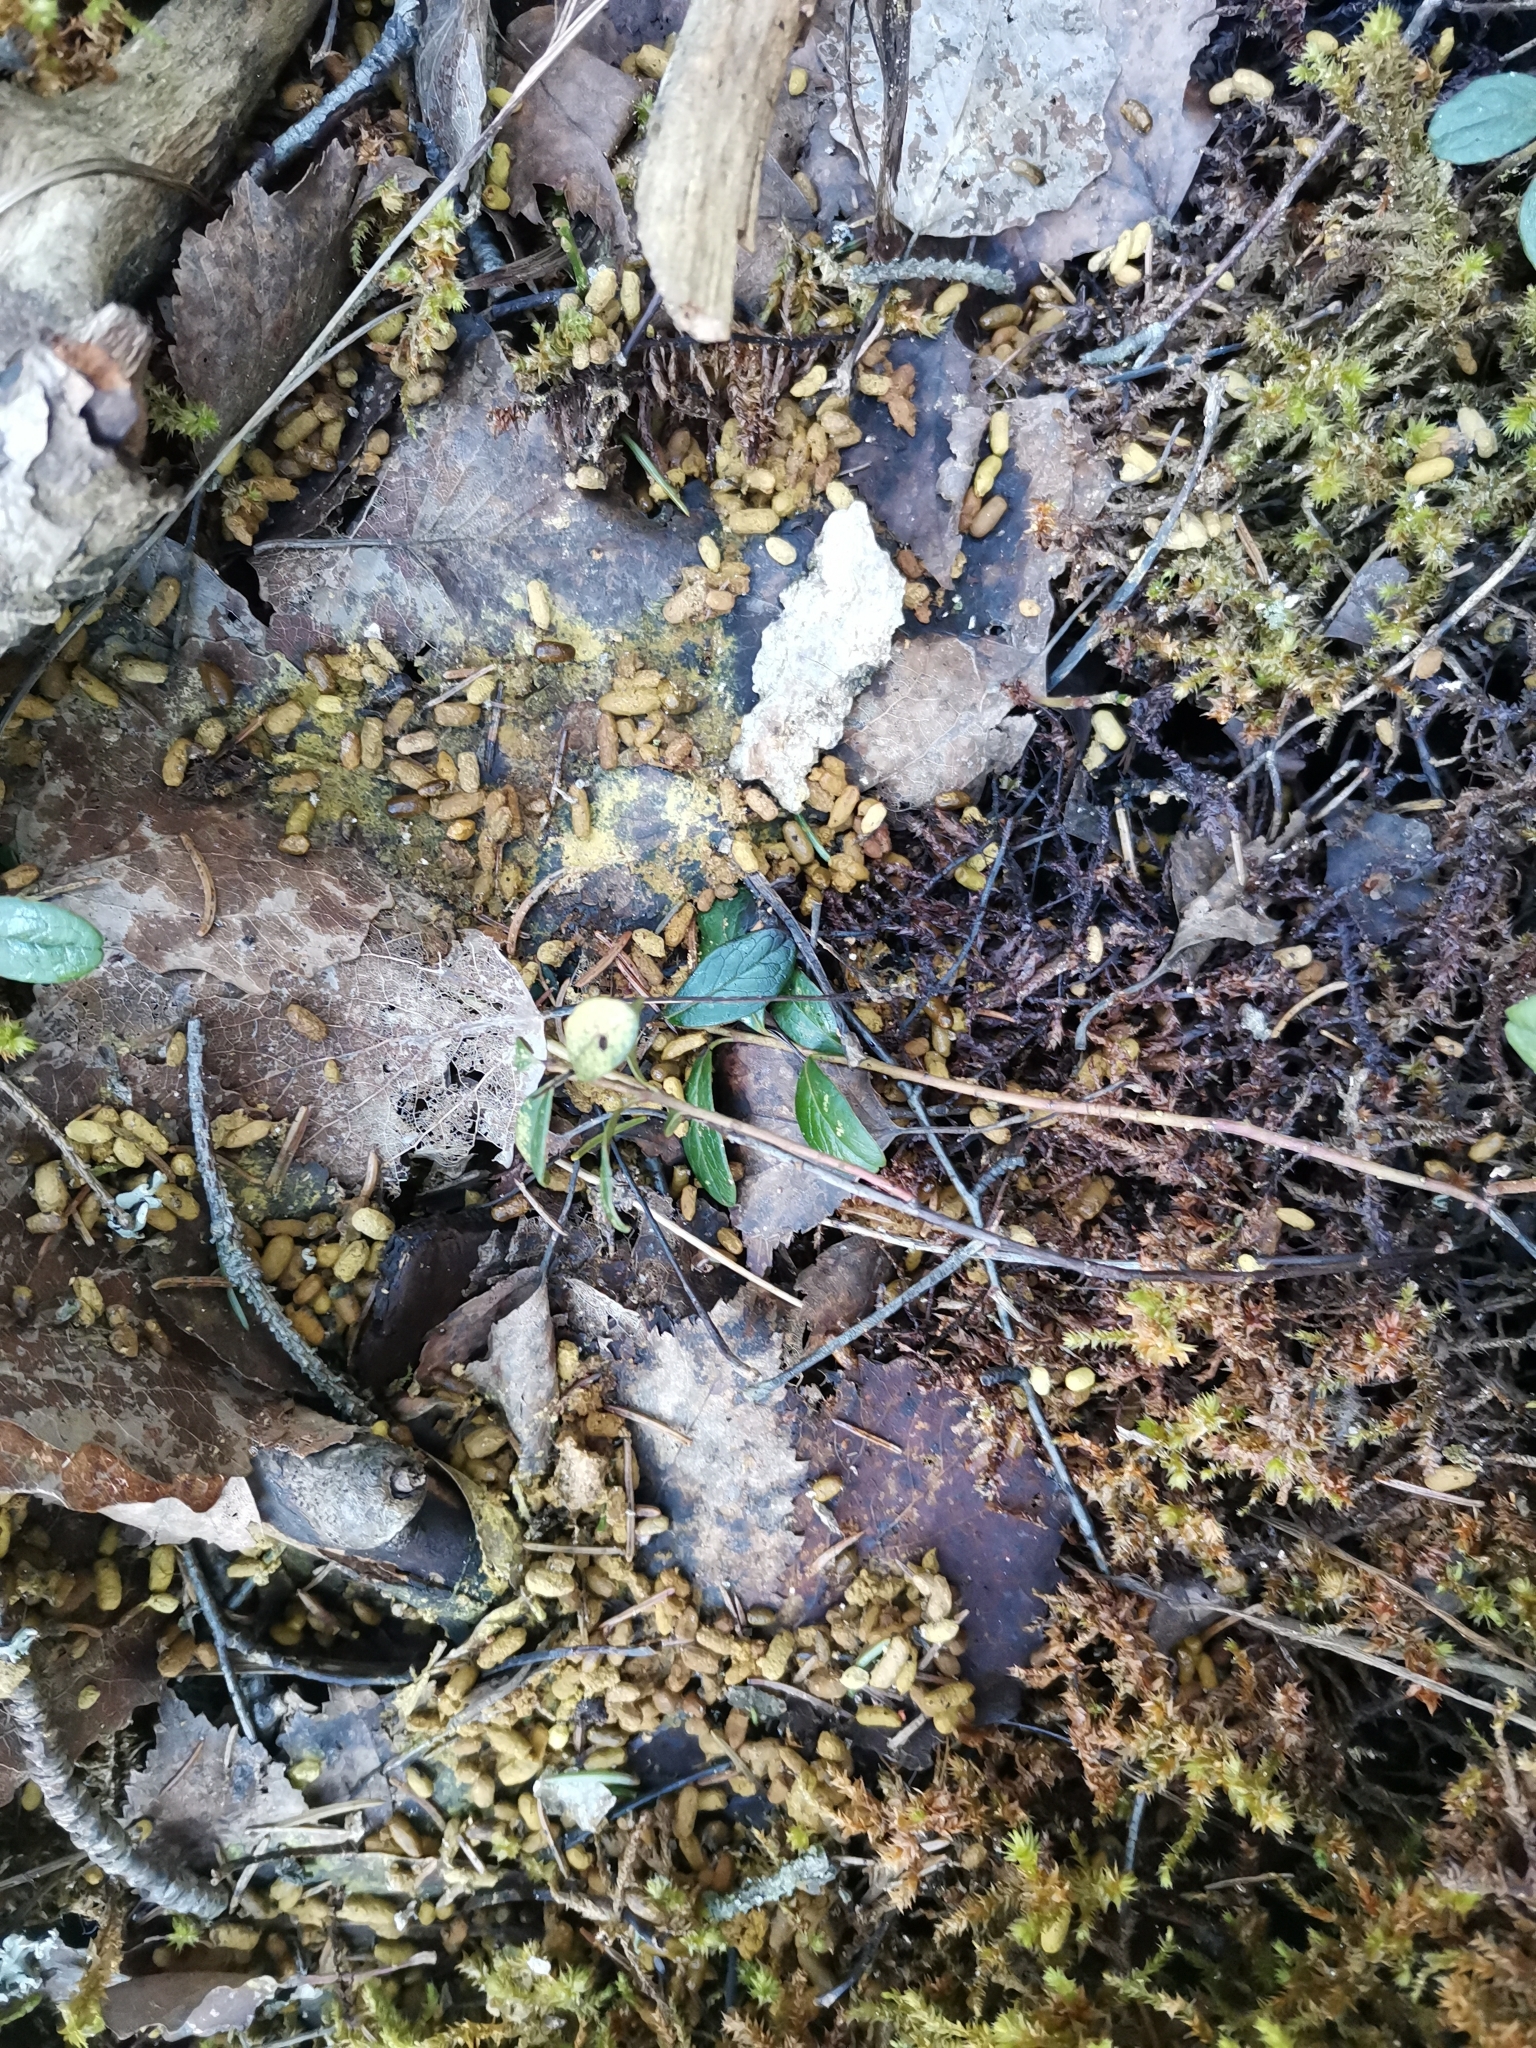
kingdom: Animalia
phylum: Chordata
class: Mammalia
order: Rodentia
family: Sciuridae
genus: Pteromys
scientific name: Pteromys volans
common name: Siberian flying squirrel
